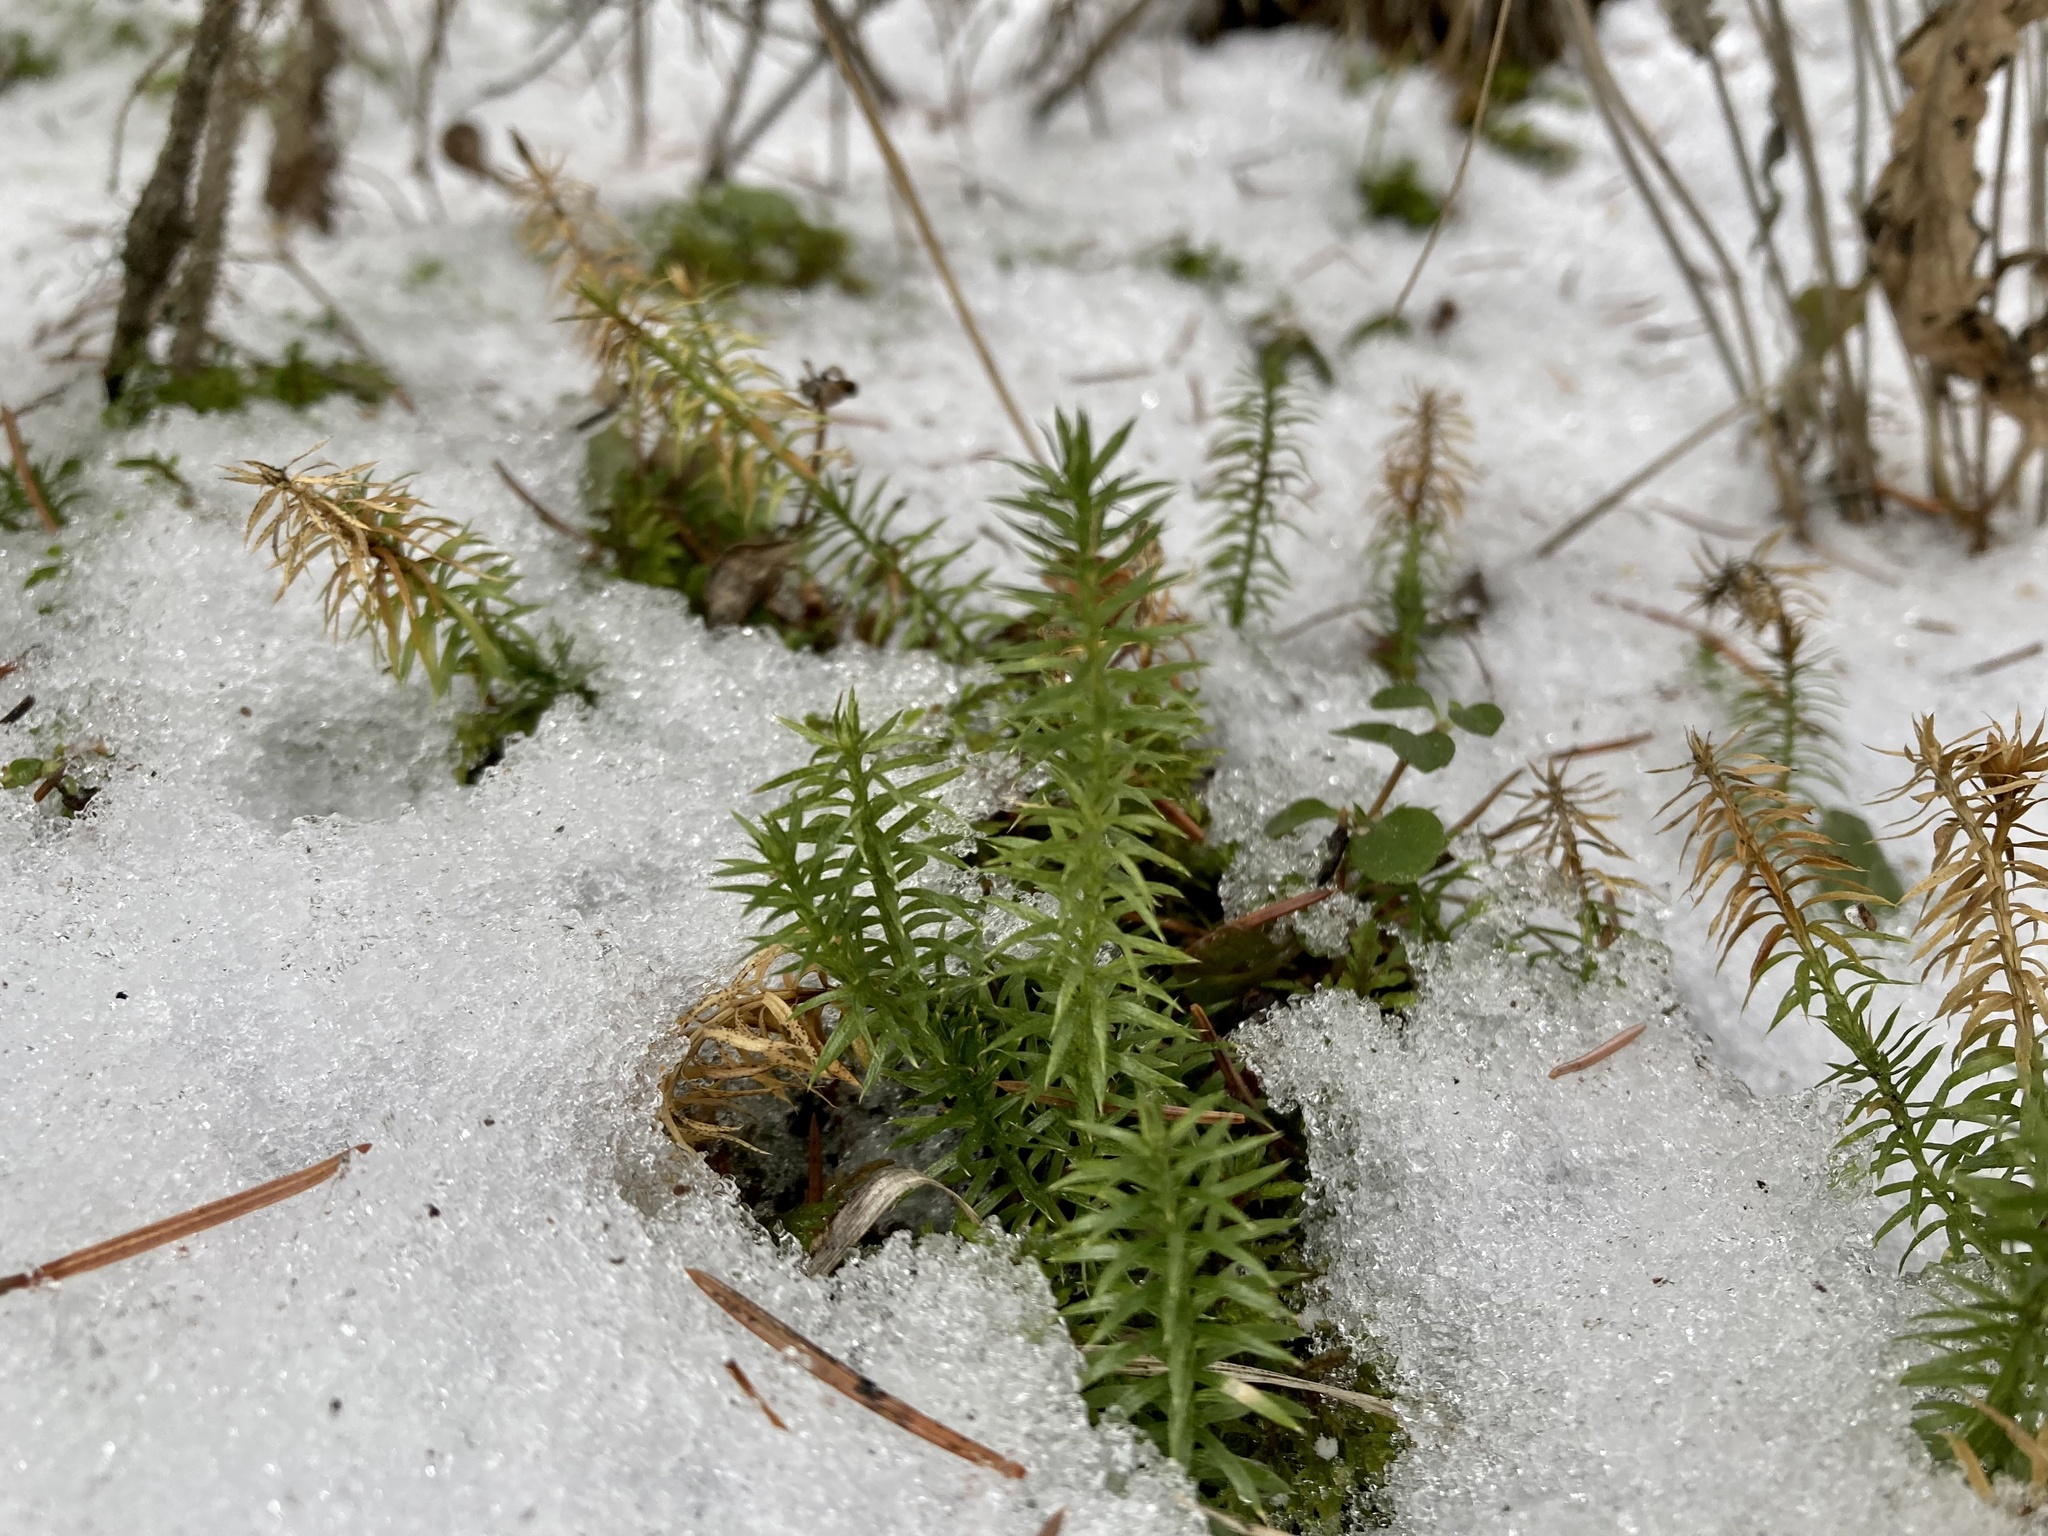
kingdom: Plantae
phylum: Tracheophyta
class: Lycopodiopsida
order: Lycopodiales
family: Lycopodiaceae
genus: Spinulum
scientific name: Spinulum annotinum
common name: Interrupted club-moss
